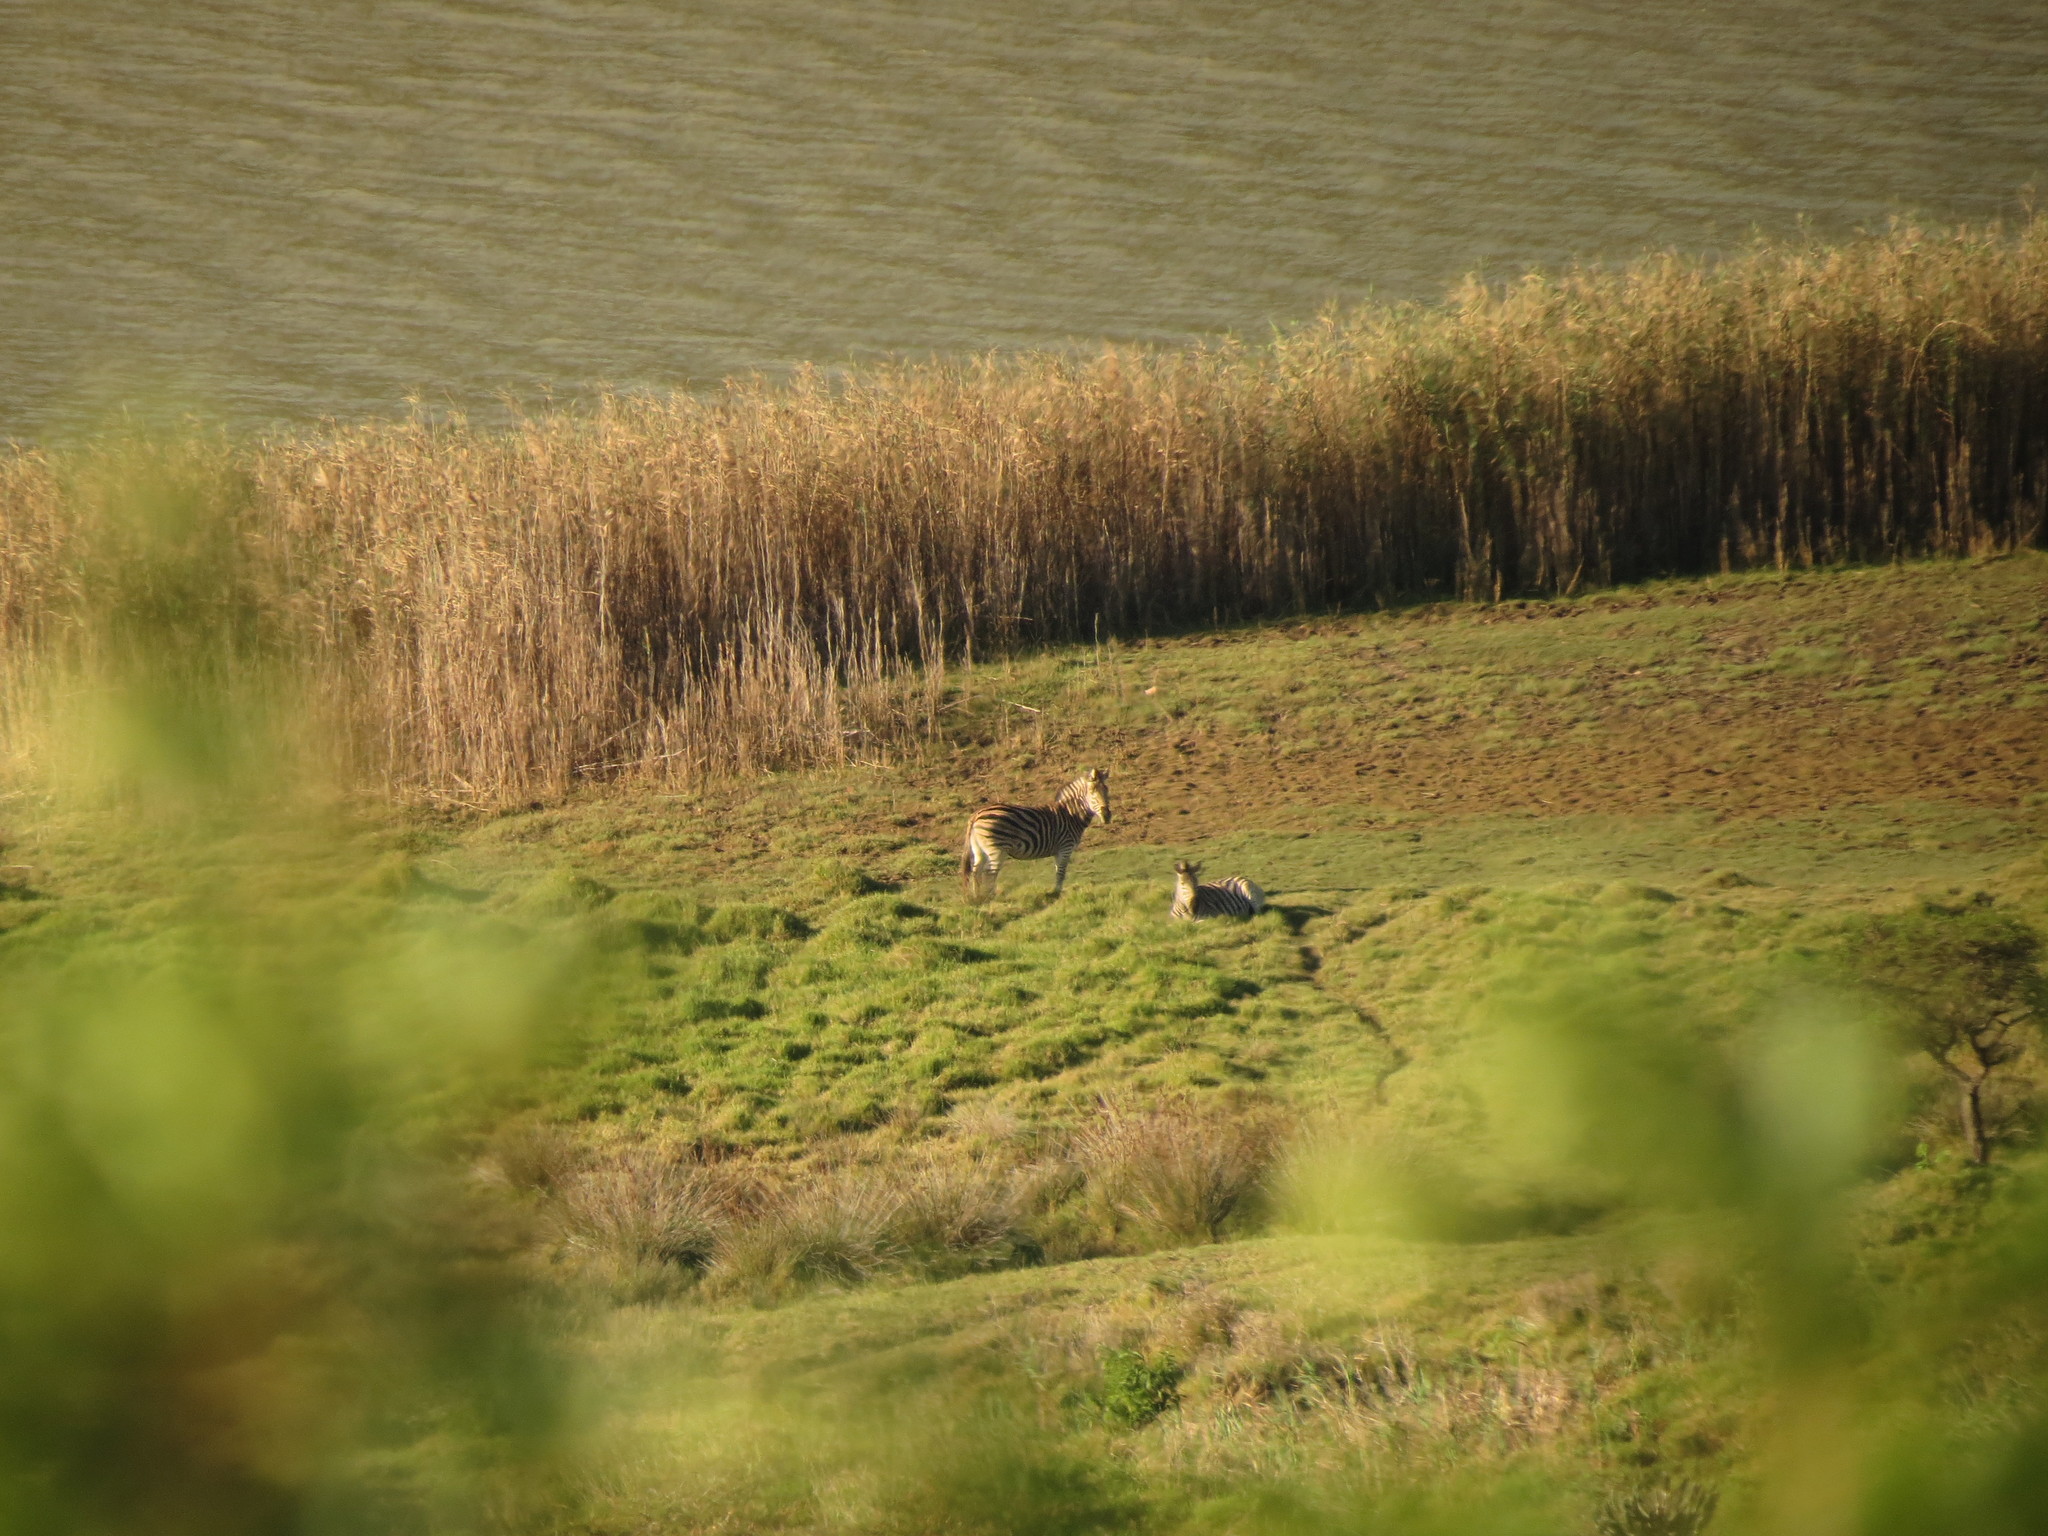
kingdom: Animalia
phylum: Chordata
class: Mammalia
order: Perissodactyla
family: Equidae
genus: Equus
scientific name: Equus quagga
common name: Plains zebra
